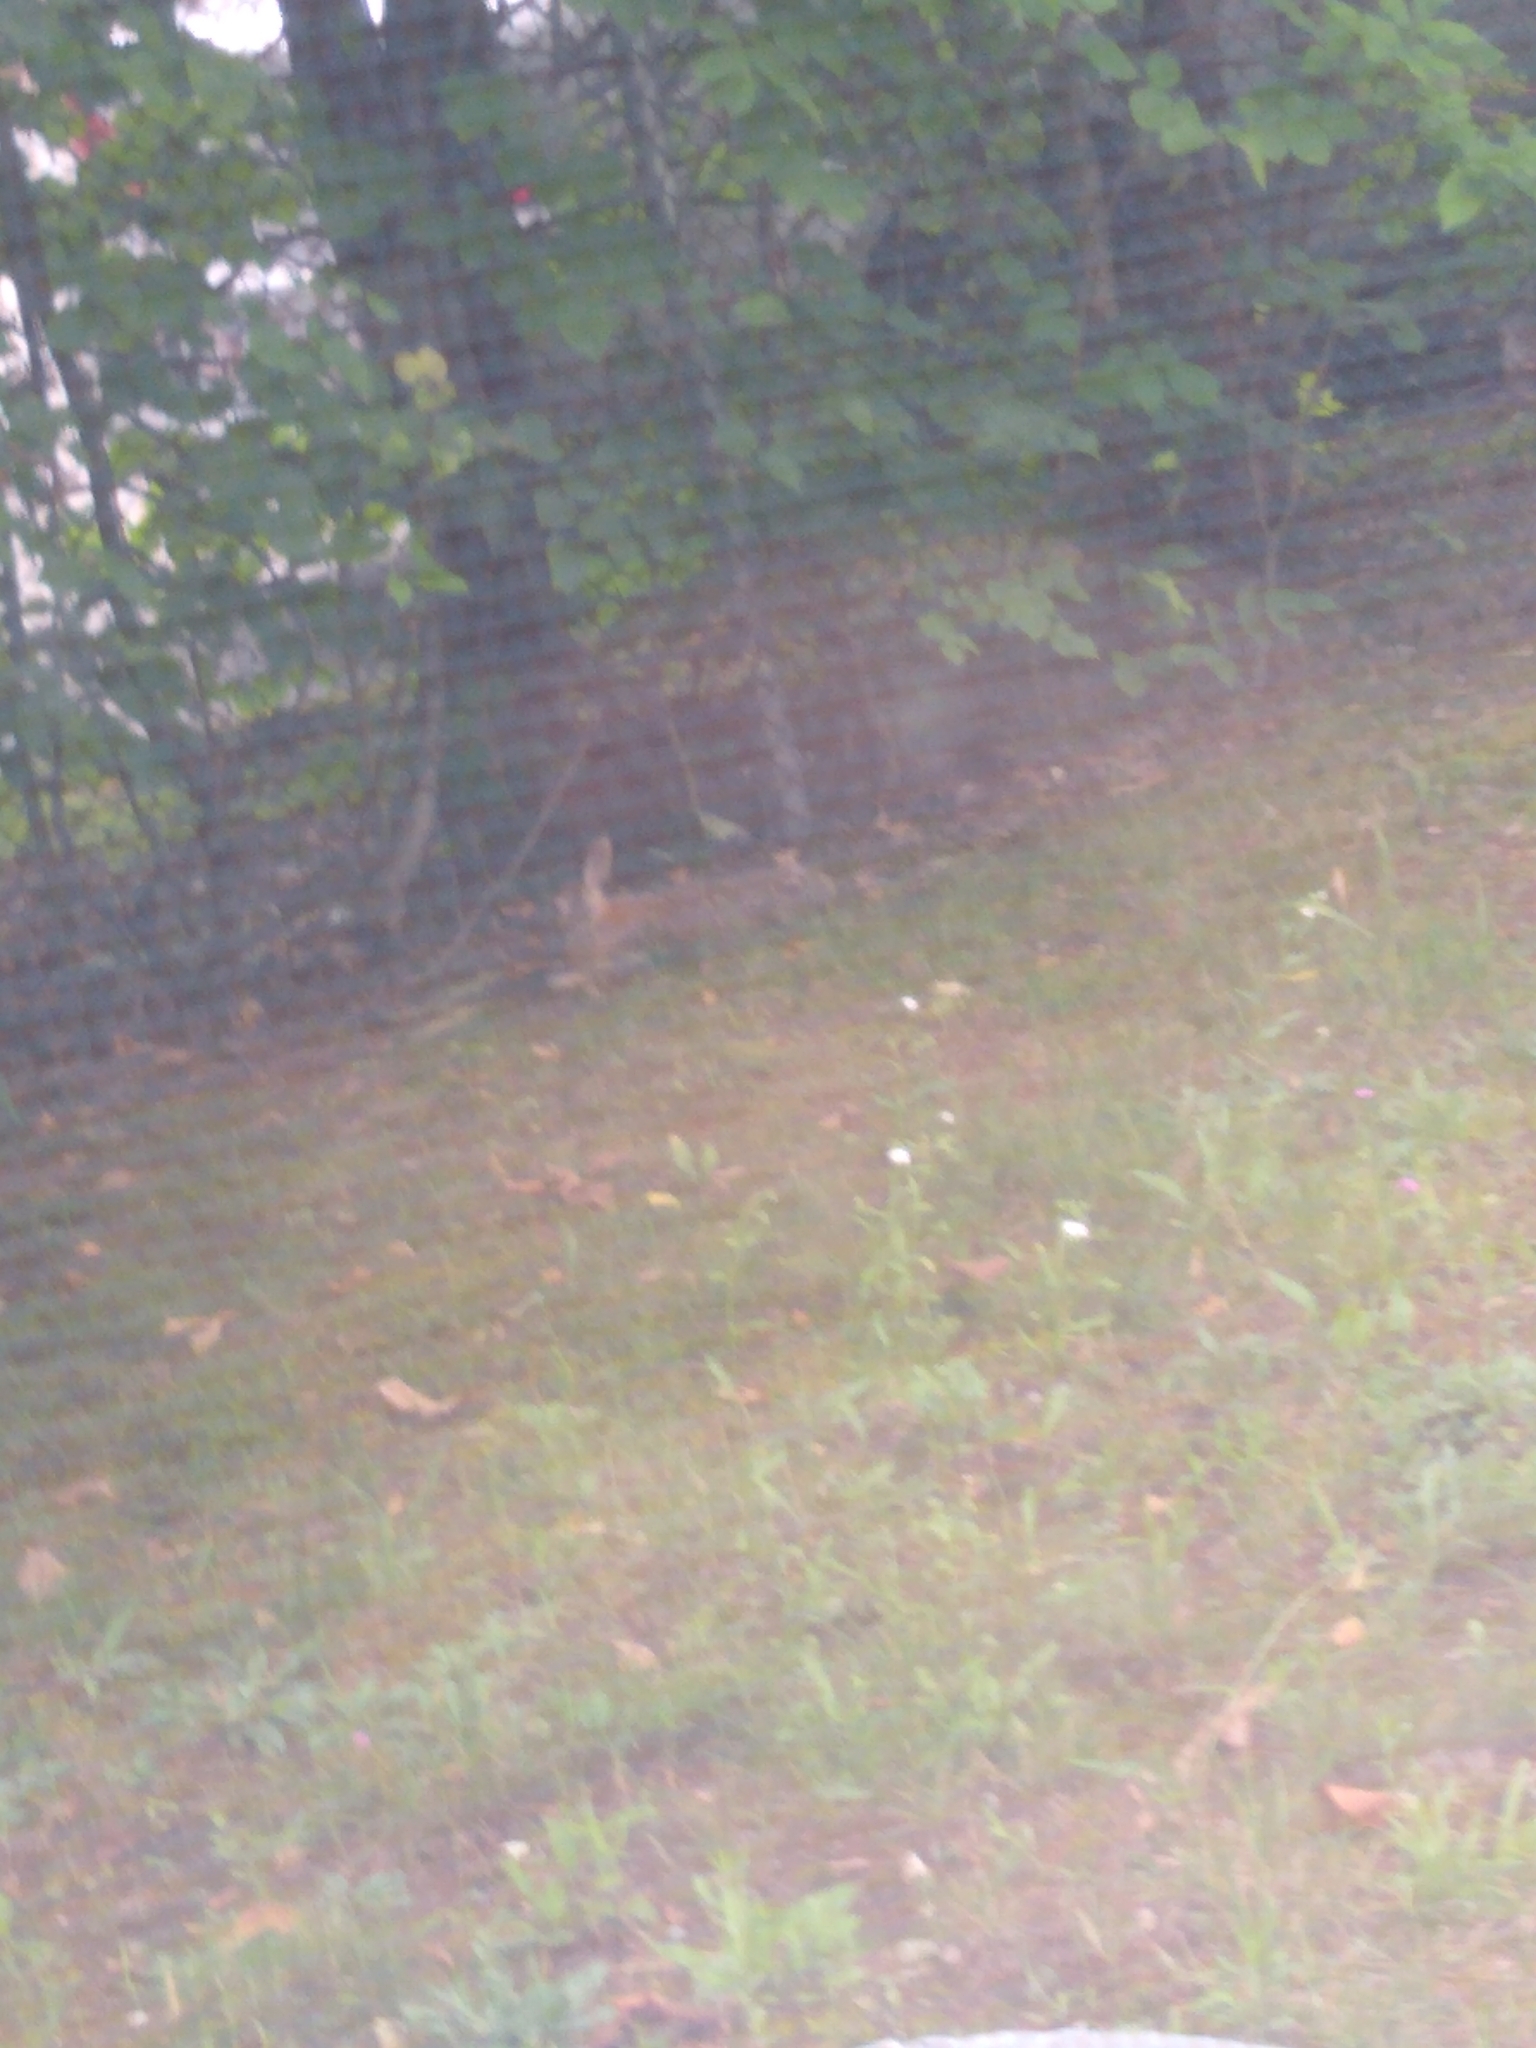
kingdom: Animalia
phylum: Chordata
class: Mammalia
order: Lagomorpha
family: Leporidae
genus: Sylvilagus
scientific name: Sylvilagus floridanus
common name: Eastern cottontail
